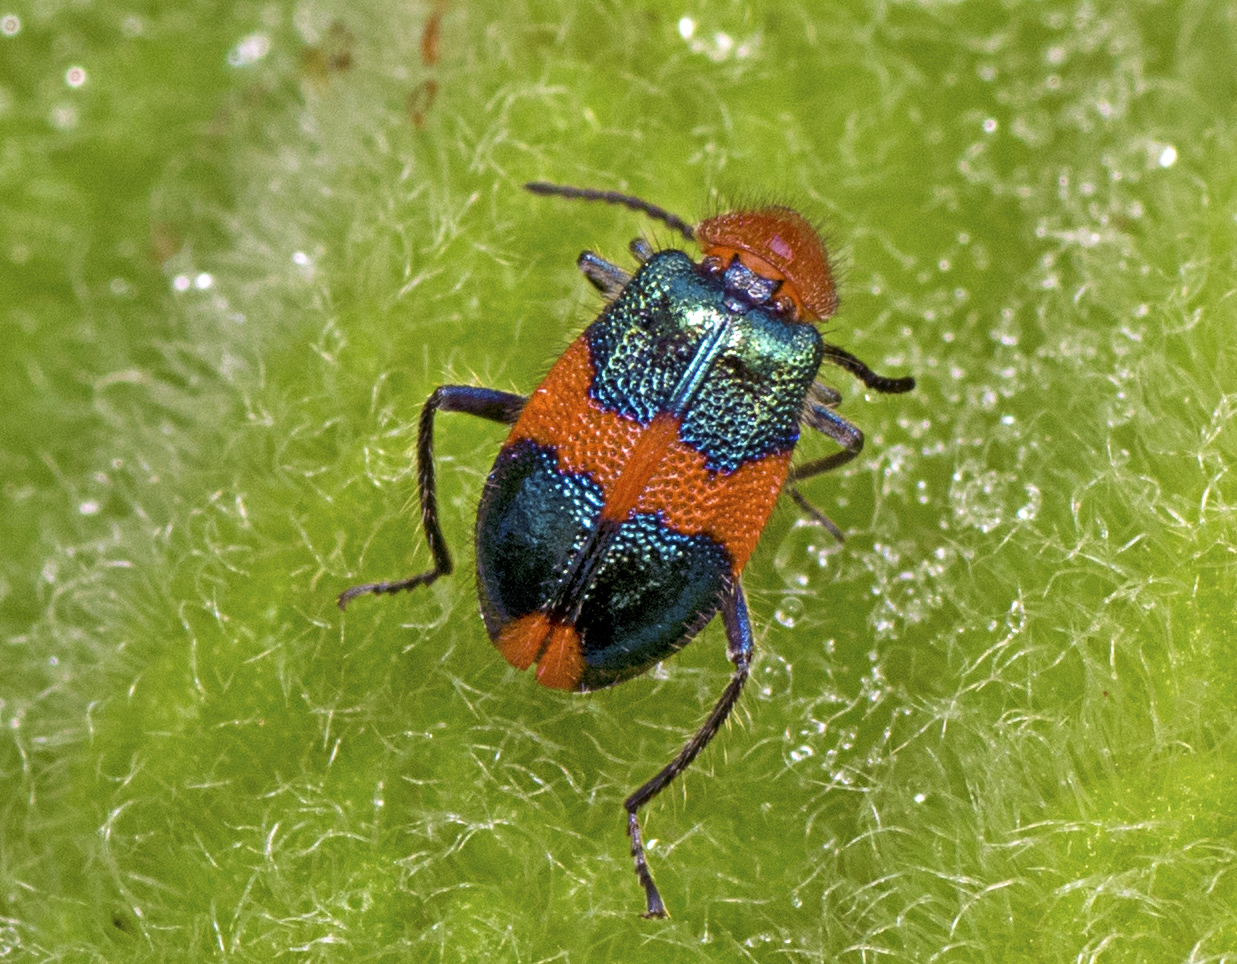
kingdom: Animalia
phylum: Arthropoda
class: Insecta
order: Coleoptera
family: Melyridae
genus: Dicranolaius
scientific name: Dicranolaius bellulus
